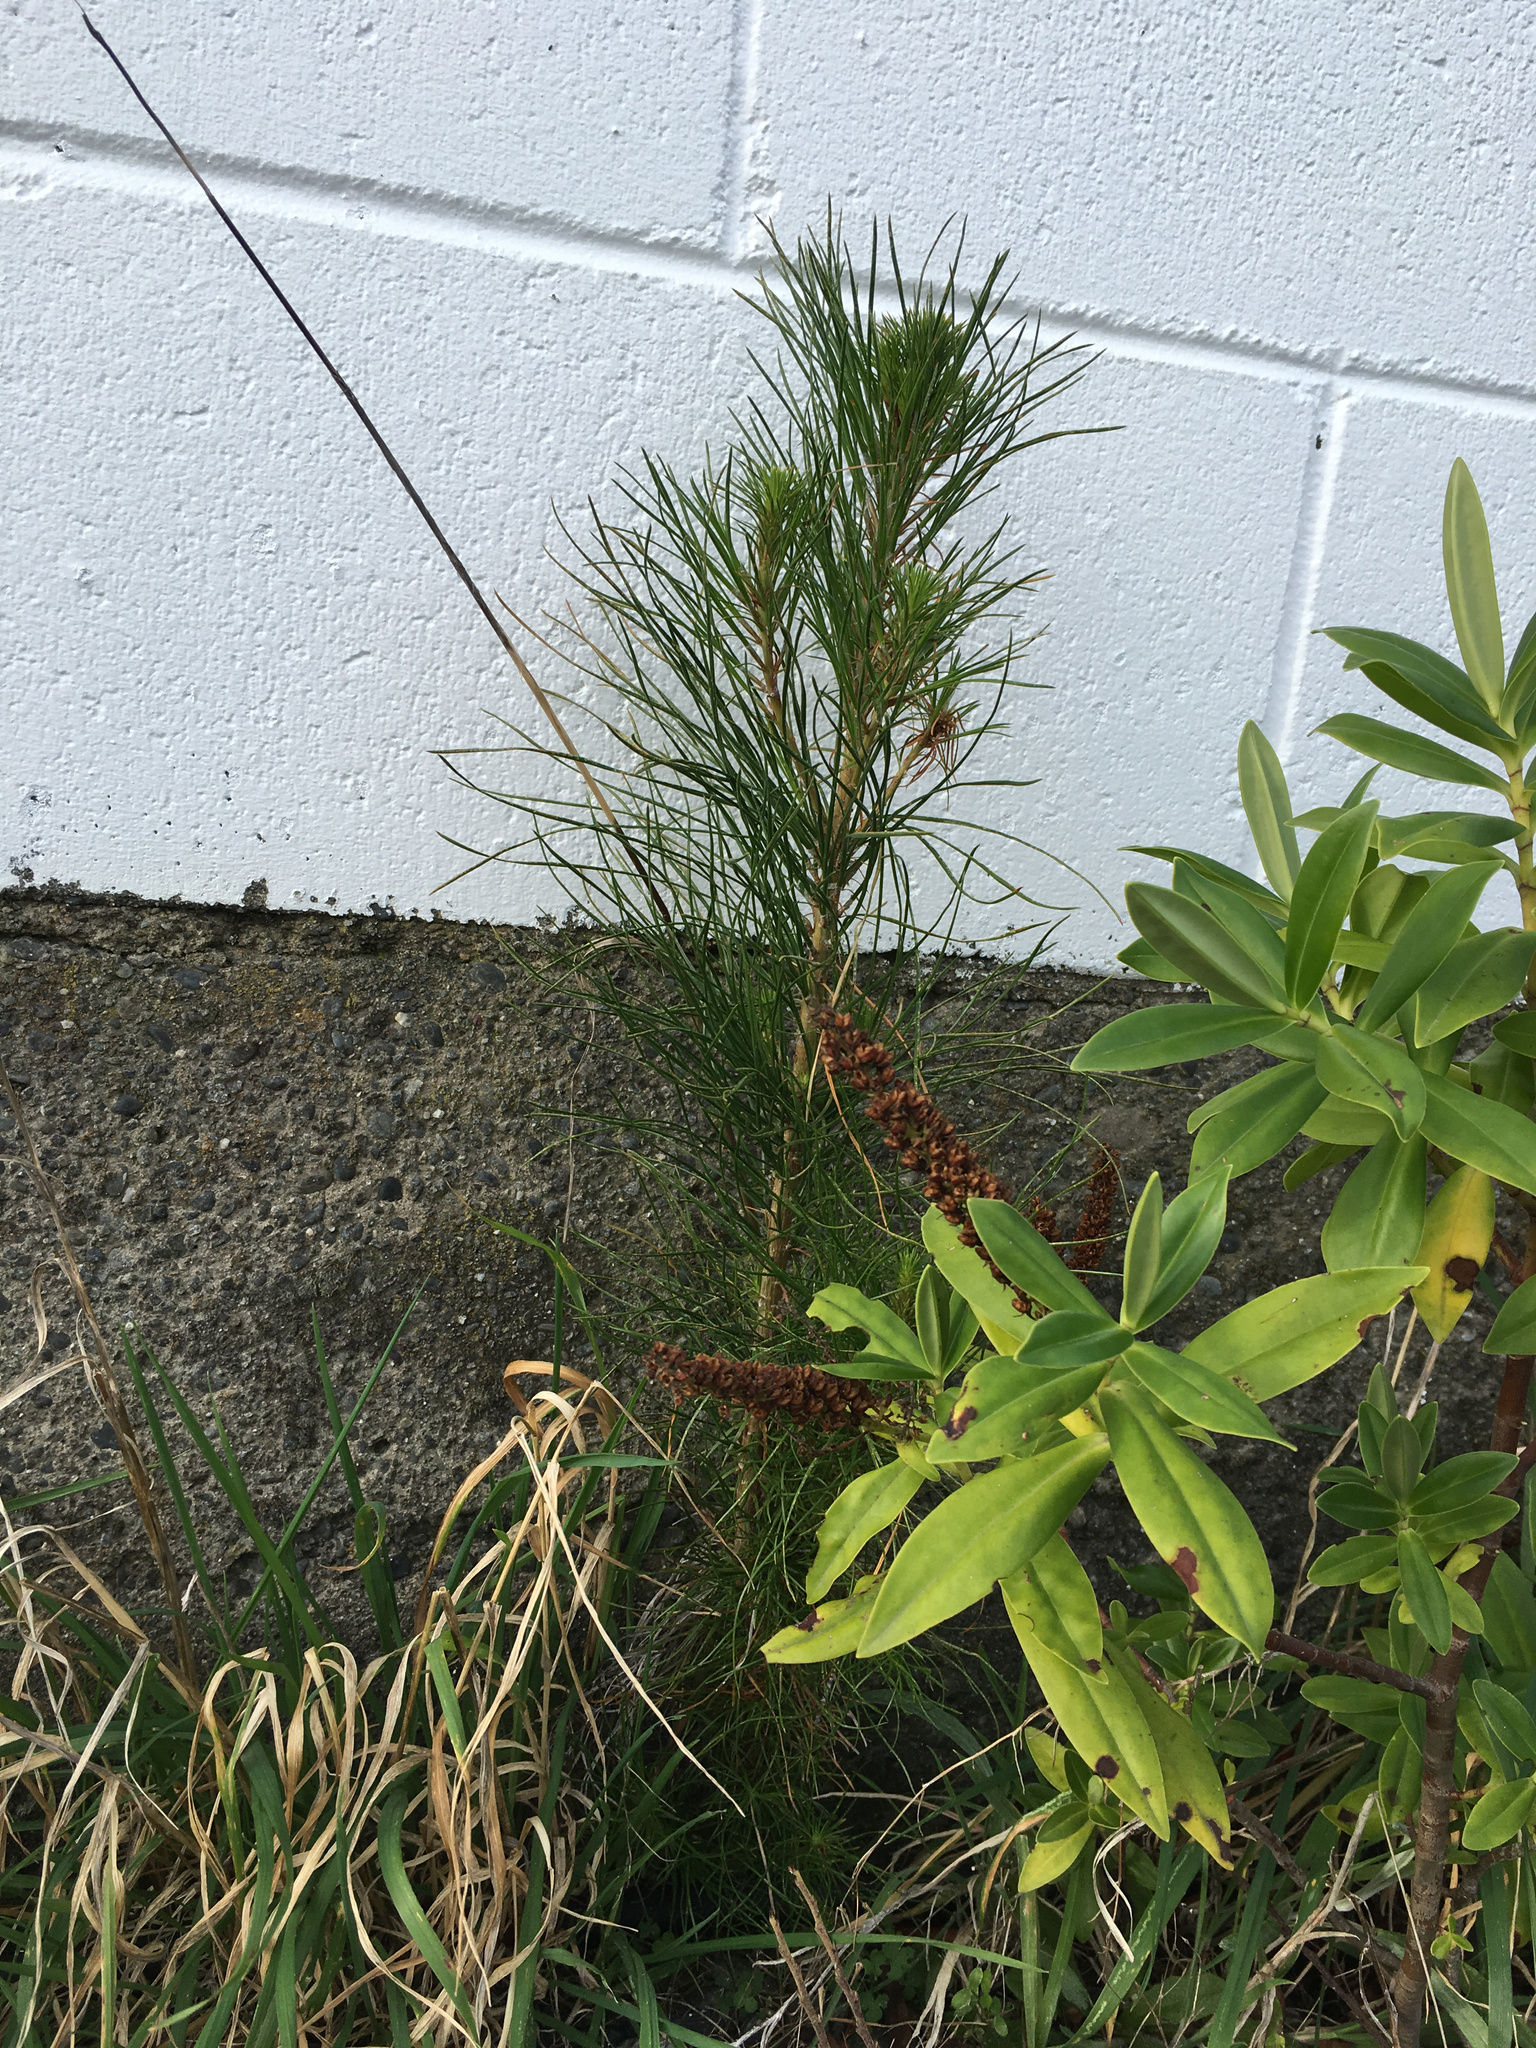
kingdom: Plantae
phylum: Tracheophyta
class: Pinopsida
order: Pinales
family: Pinaceae
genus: Pinus
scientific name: Pinus radiata
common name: Monterey pine
